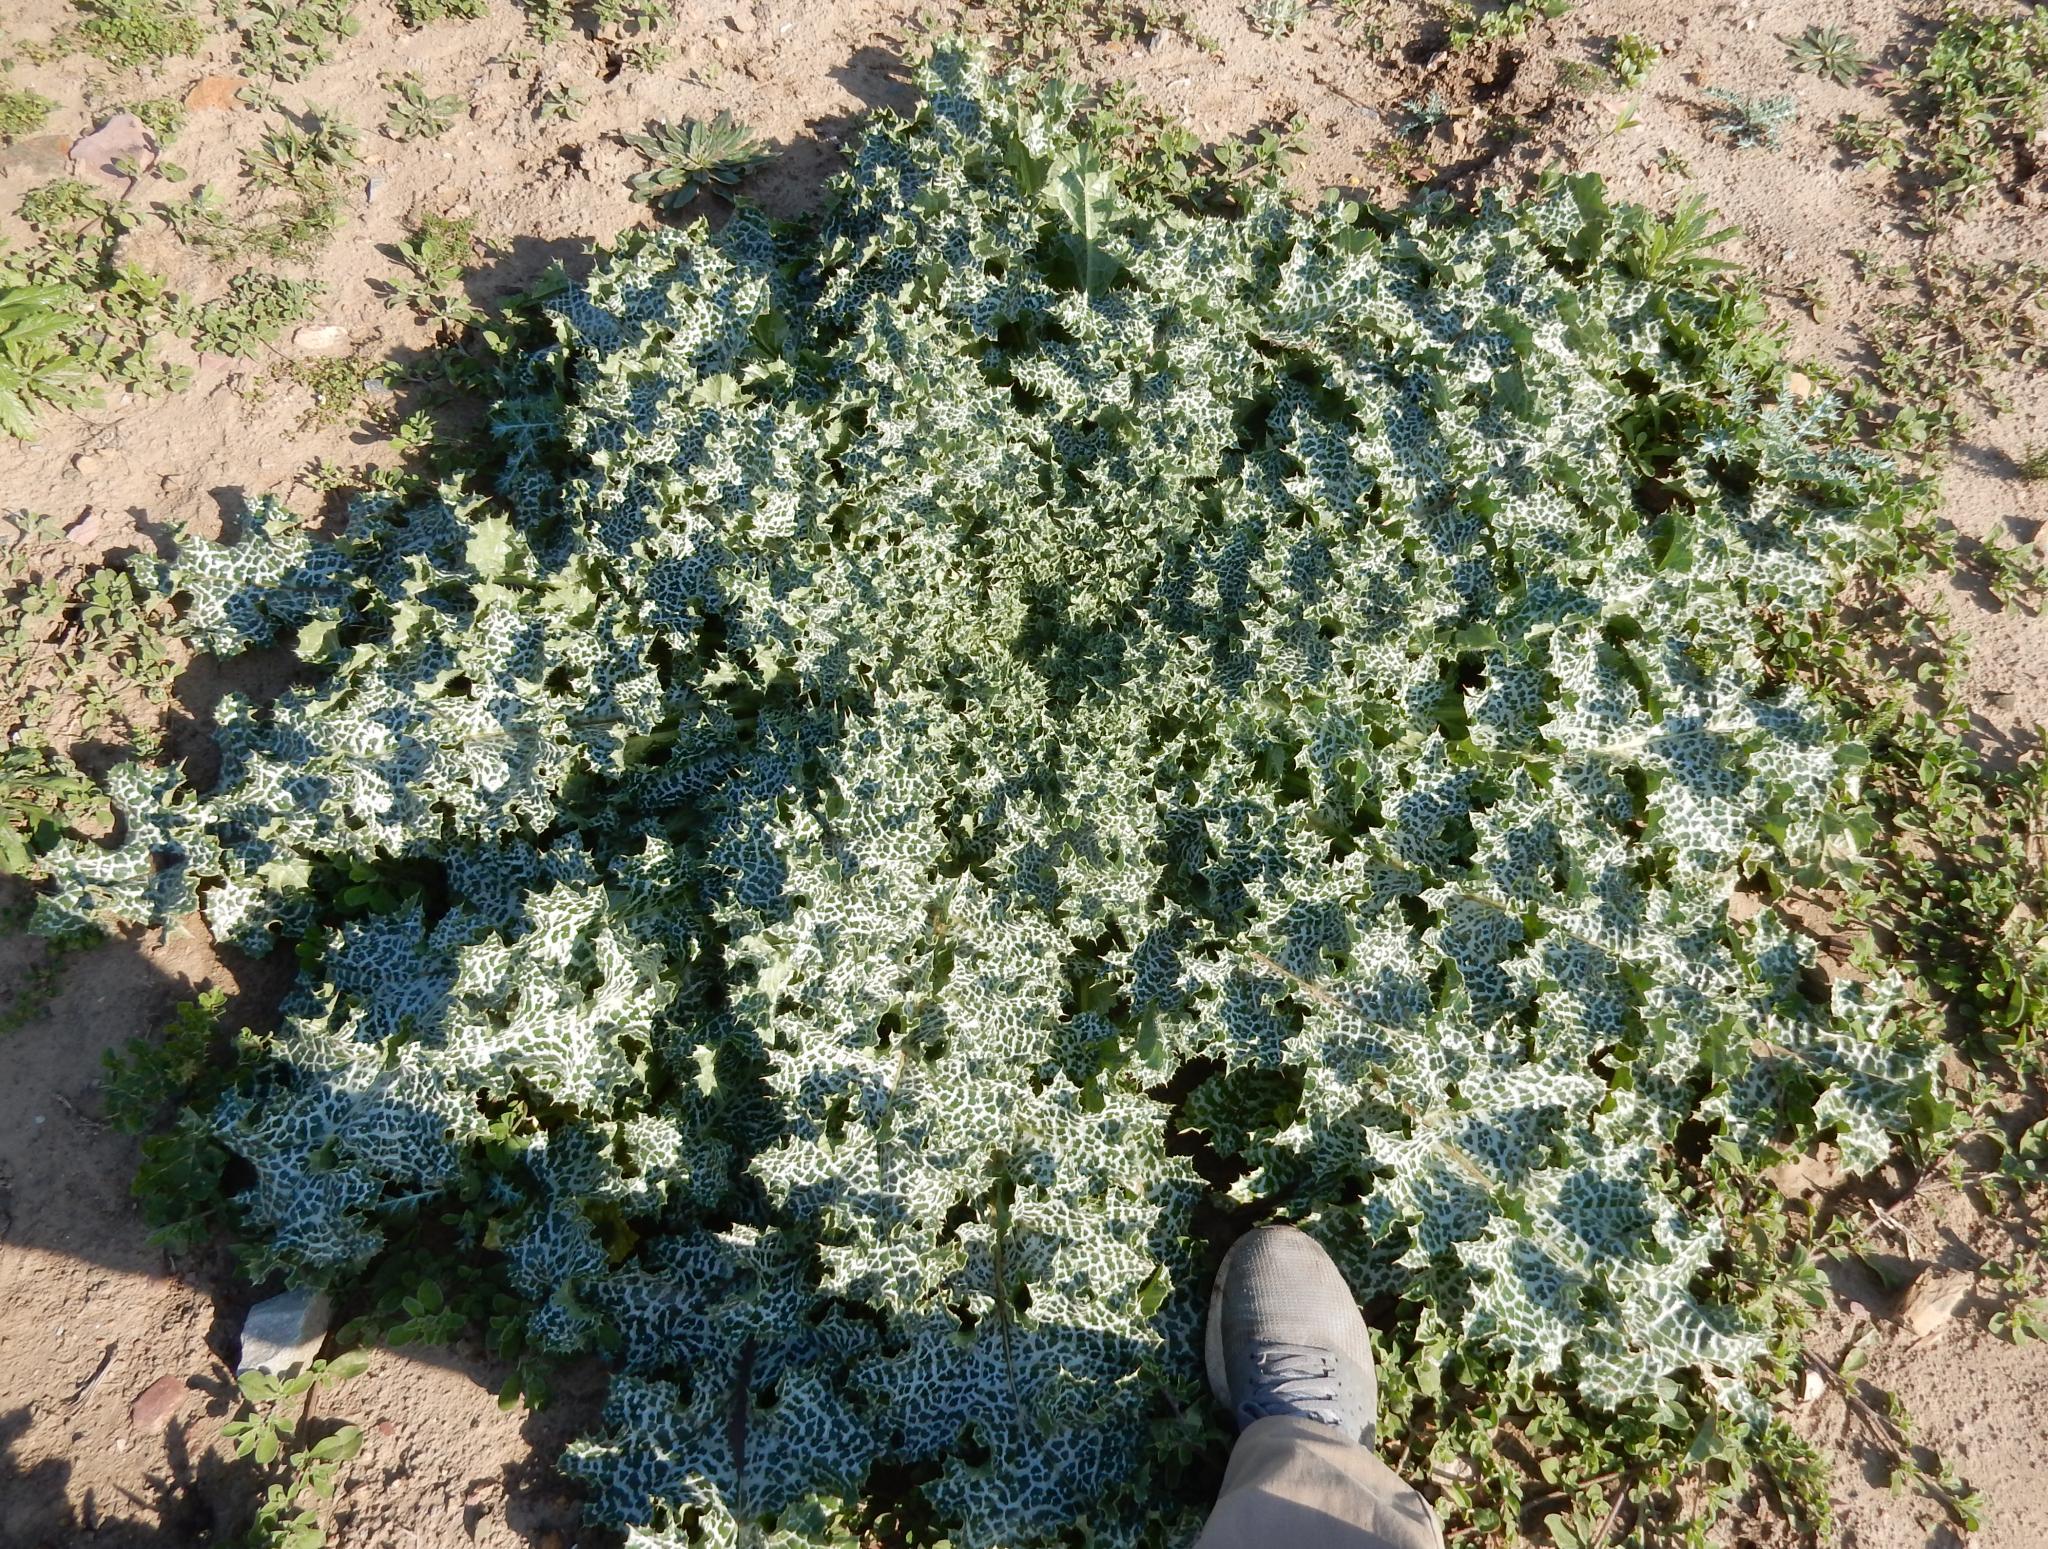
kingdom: Plantae
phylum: Tracheophyta
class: Magnoliopsida
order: Asterales
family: Asteraceae
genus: Silybum
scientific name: Silybum marianum
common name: Milk thistle
